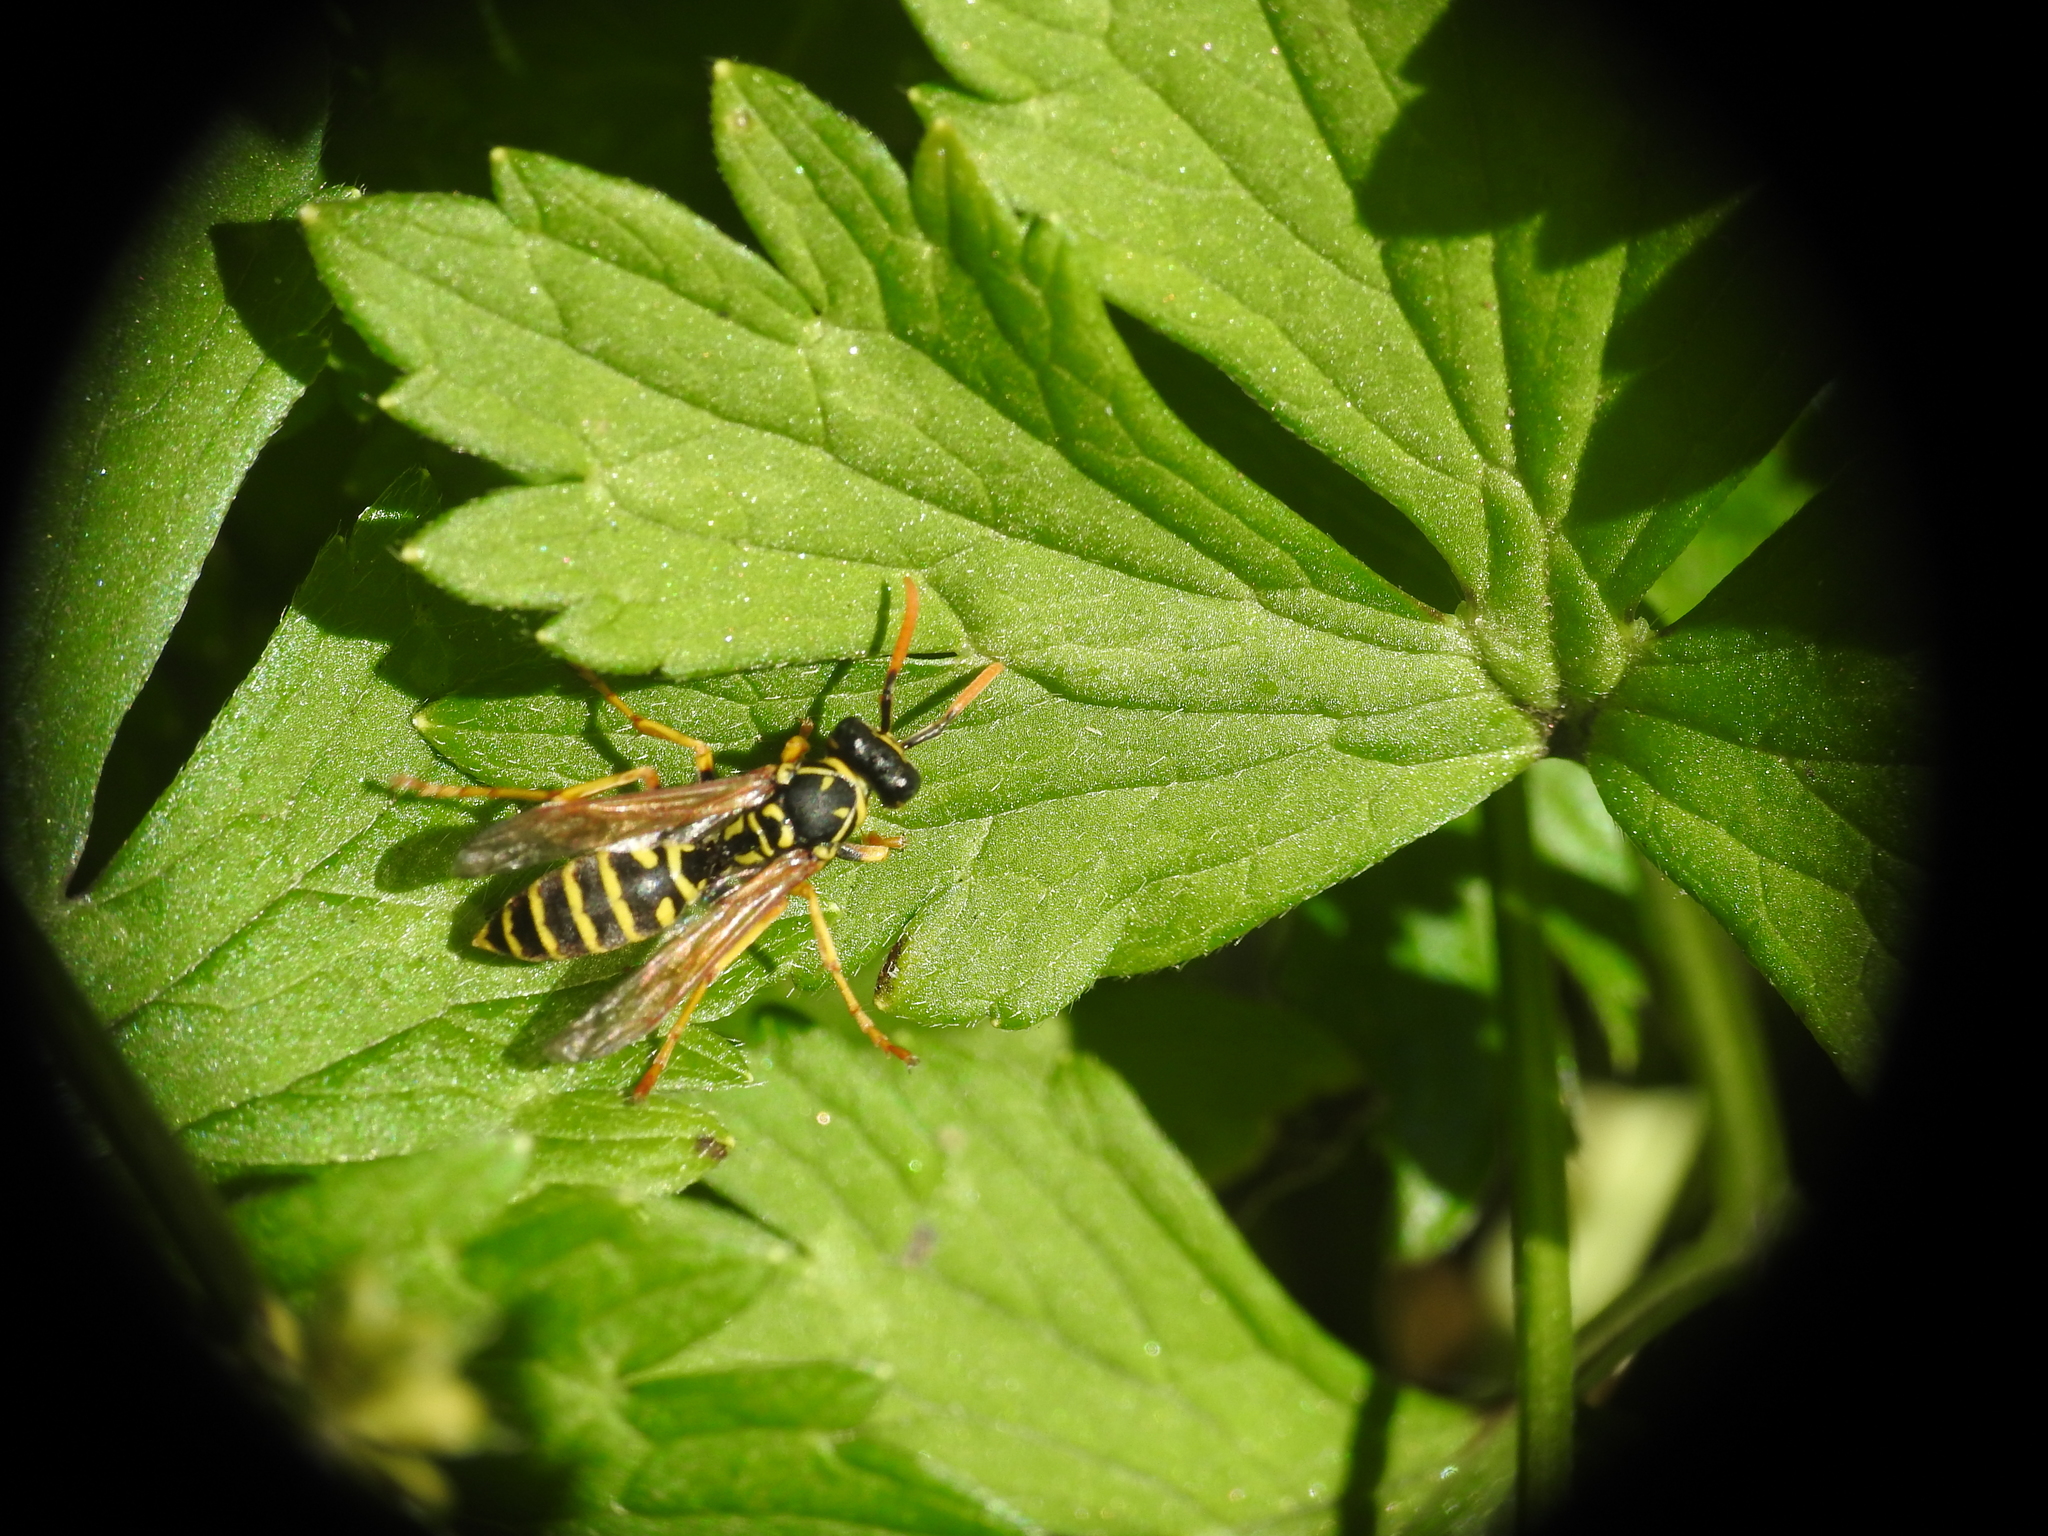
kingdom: Animalia
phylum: Arthropoda
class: Insecta
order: Hymenoptera
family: Eumenidae
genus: Polistes
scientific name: Polistes dominula
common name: Paper wasp
